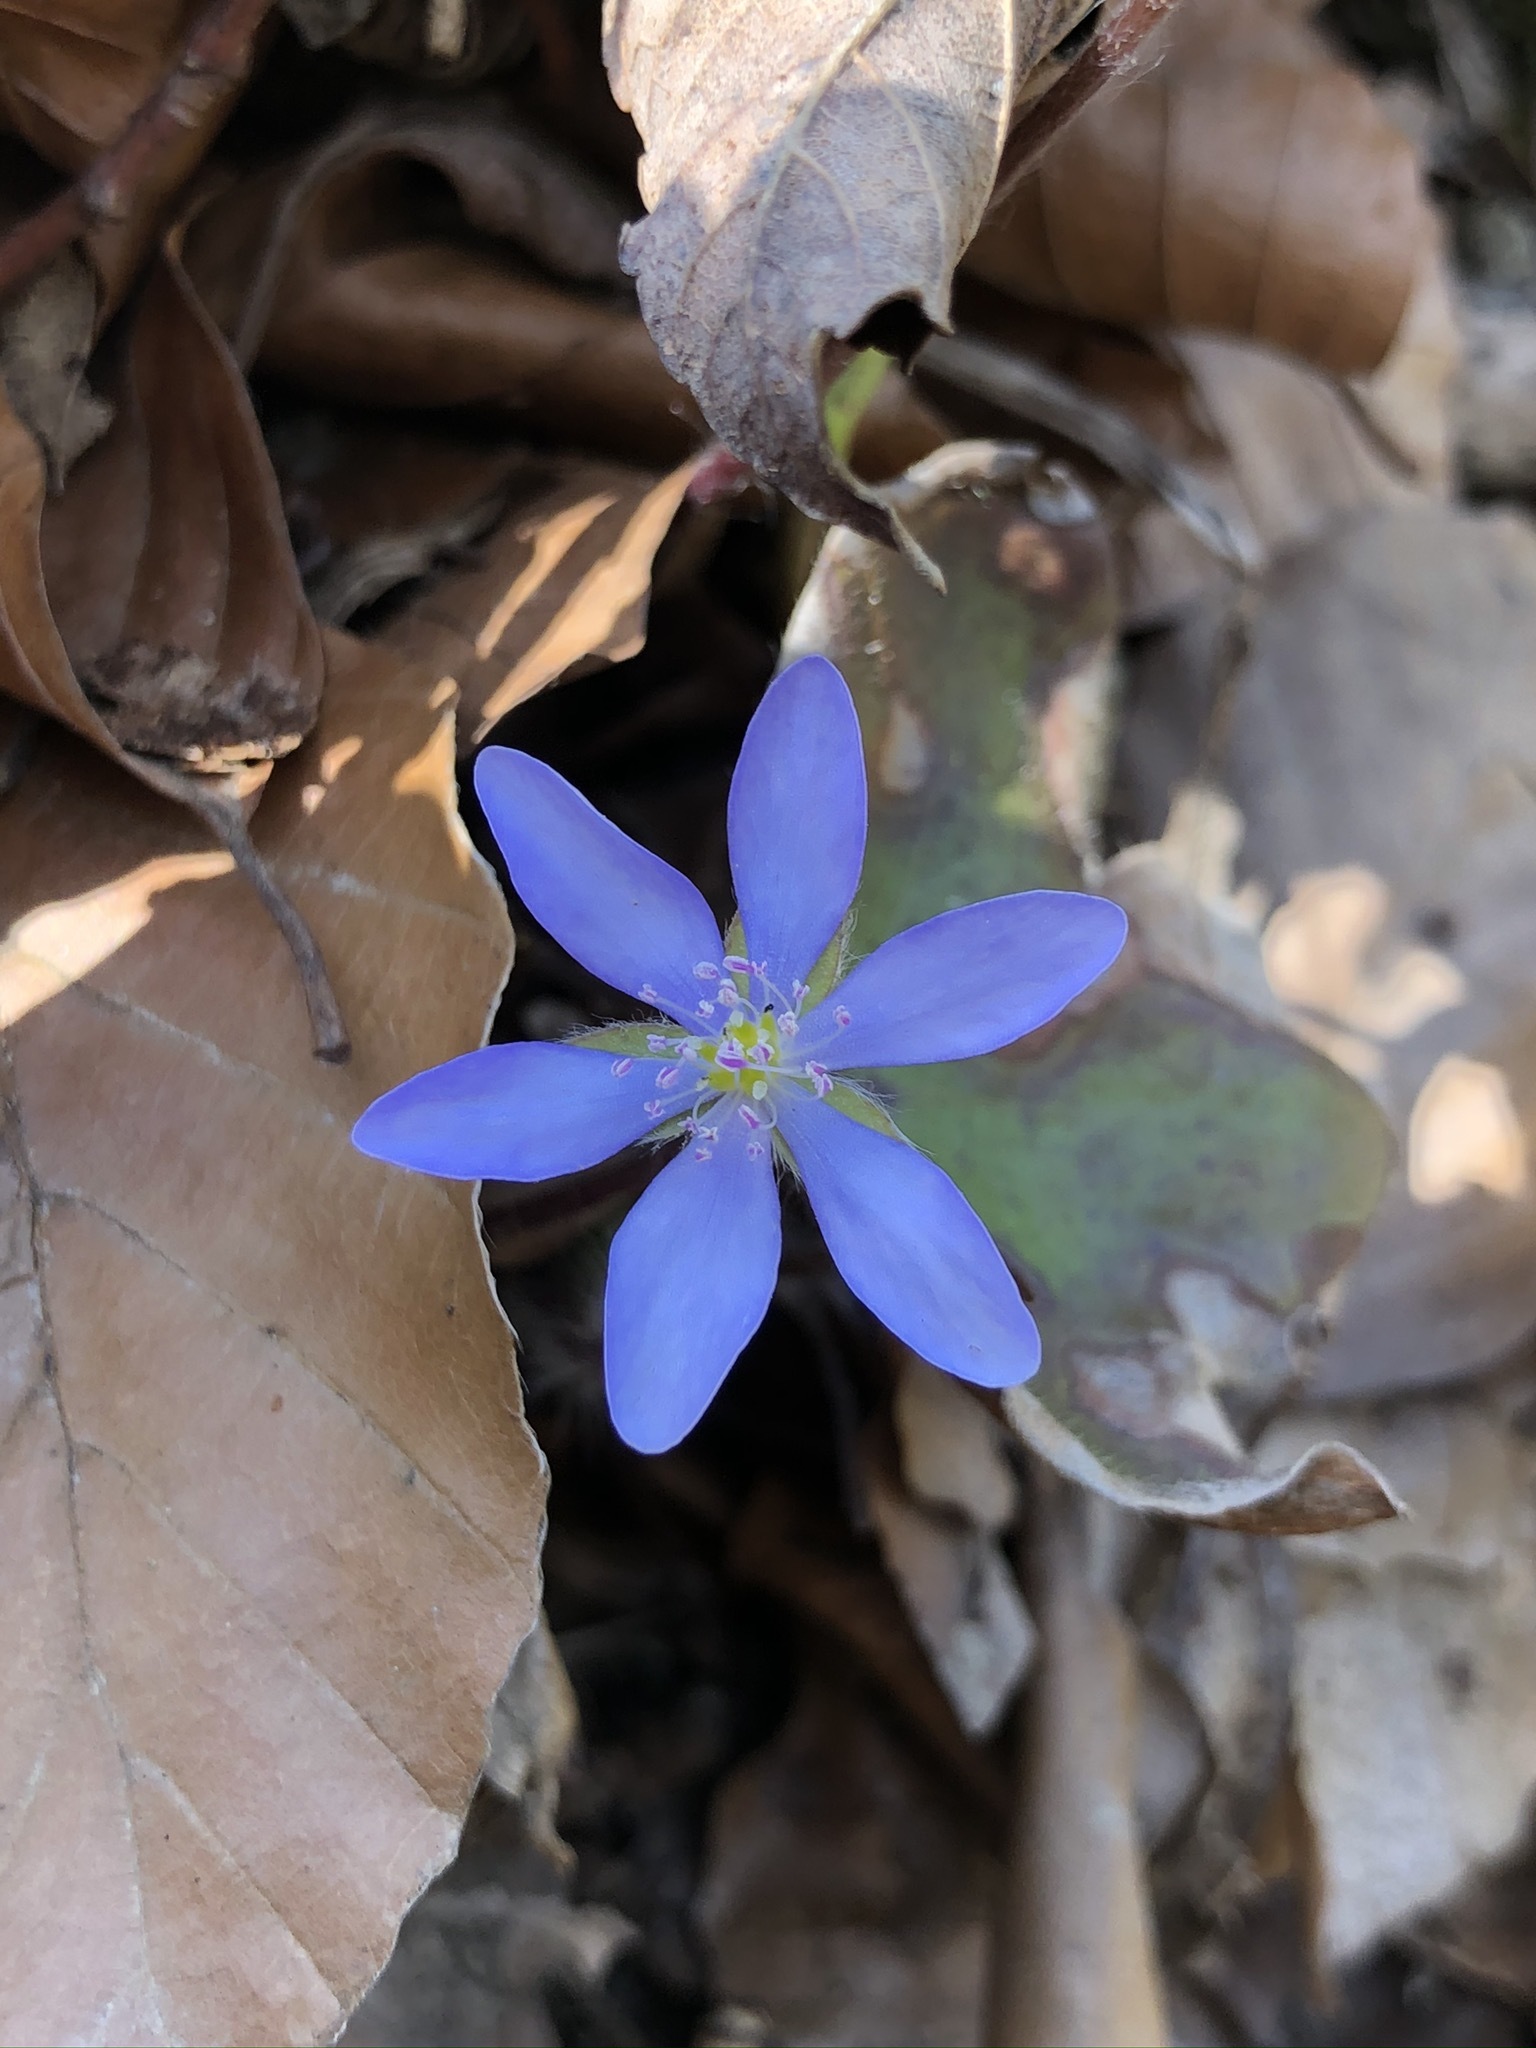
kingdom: Plantae
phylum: Tracheophyta
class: Magnoliopsida
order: Ranunculales
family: Ranunculaceae
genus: Hepatica
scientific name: Hepatica nobilis
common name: Liverleaf
